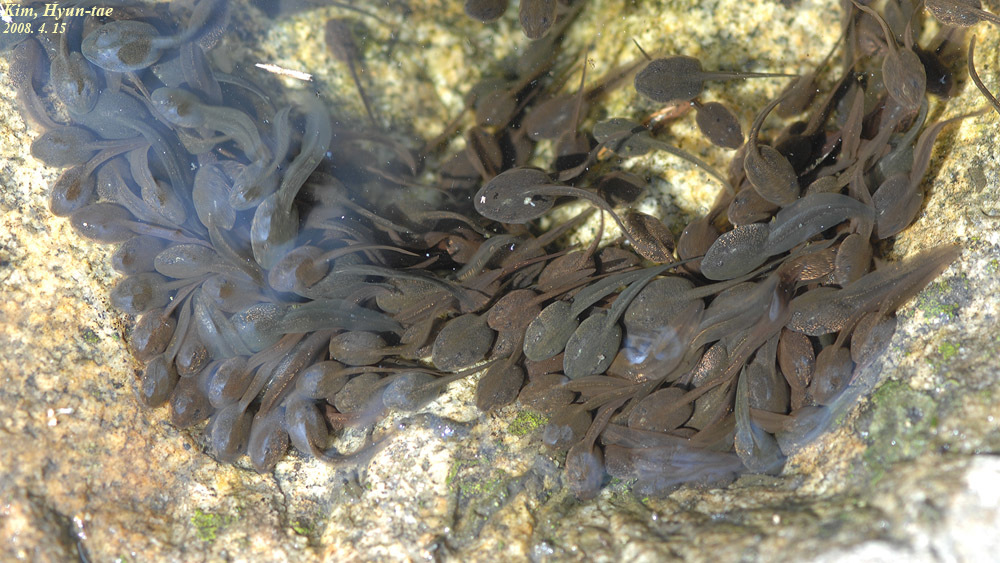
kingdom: Animalia
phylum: Chordata
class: Amphibia
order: Anura
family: Ranidae
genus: Rana
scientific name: Rana uenoi
